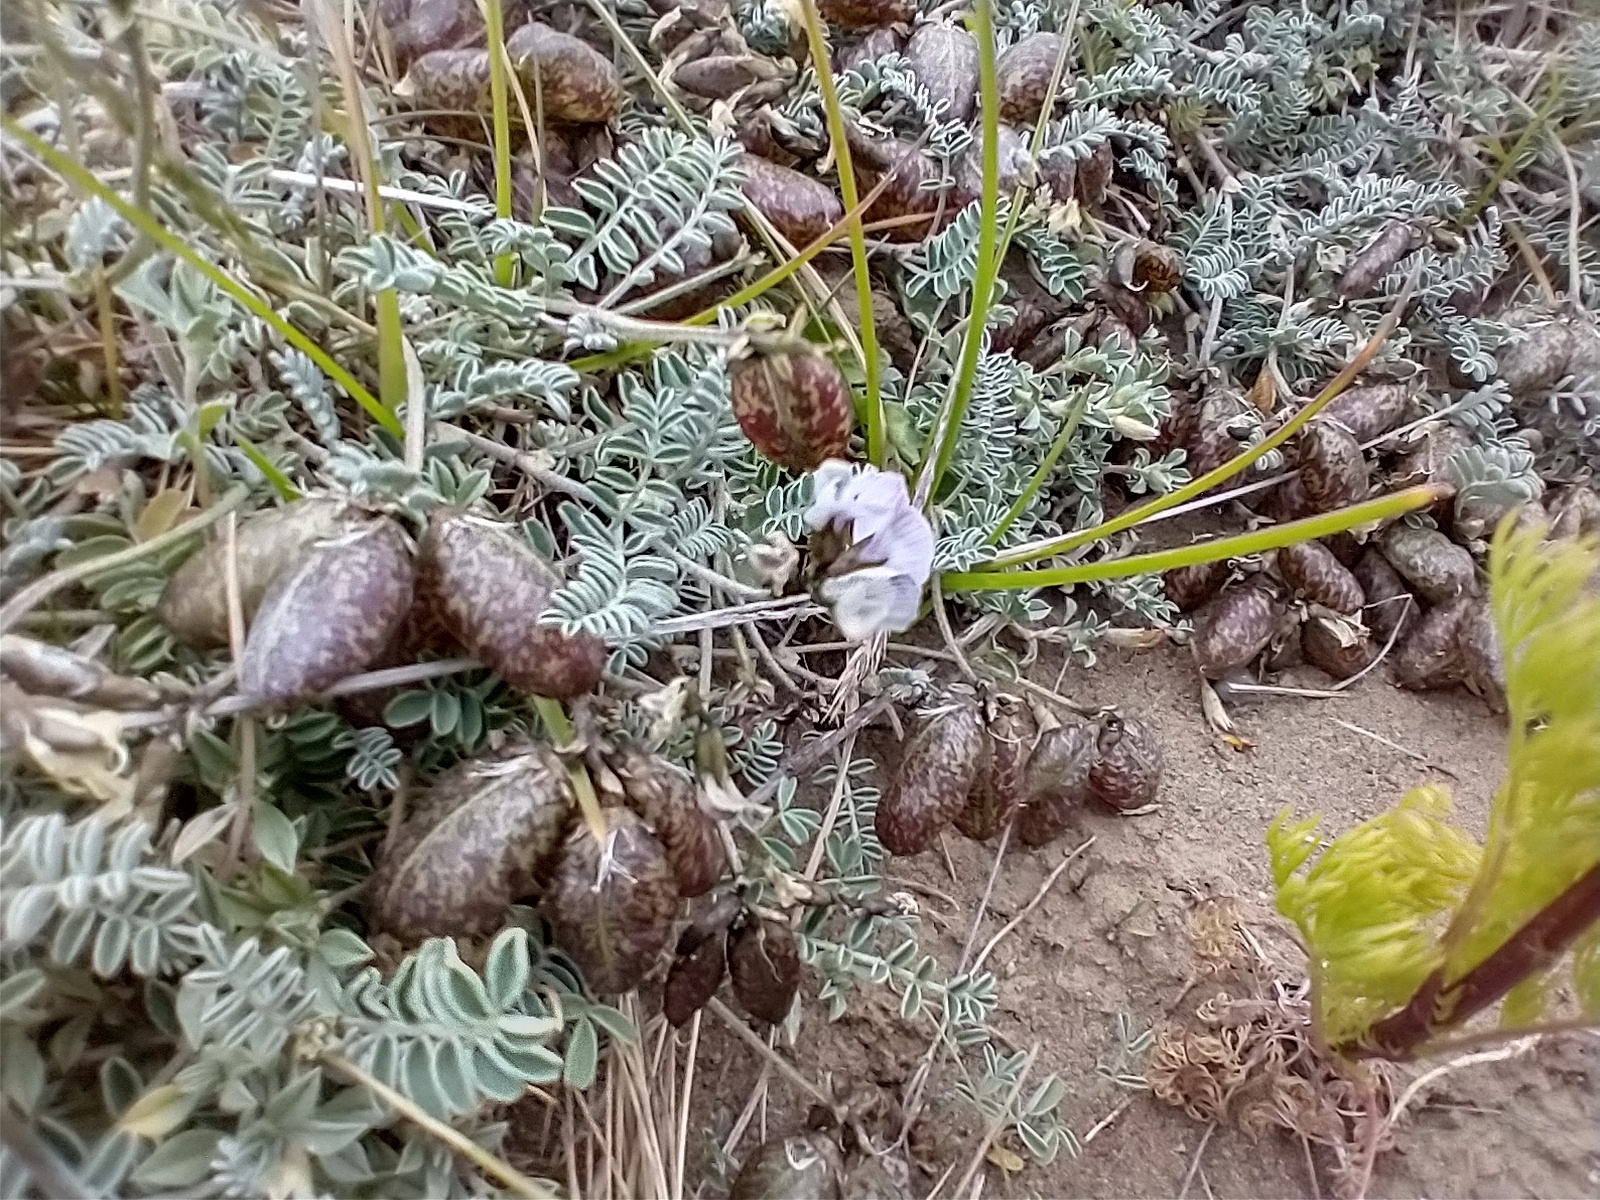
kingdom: Plantae
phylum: Tracheophyta
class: Magnoliopsida
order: Fabales
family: Fabaceae
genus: Astragalus
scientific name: Astragalus palenae
